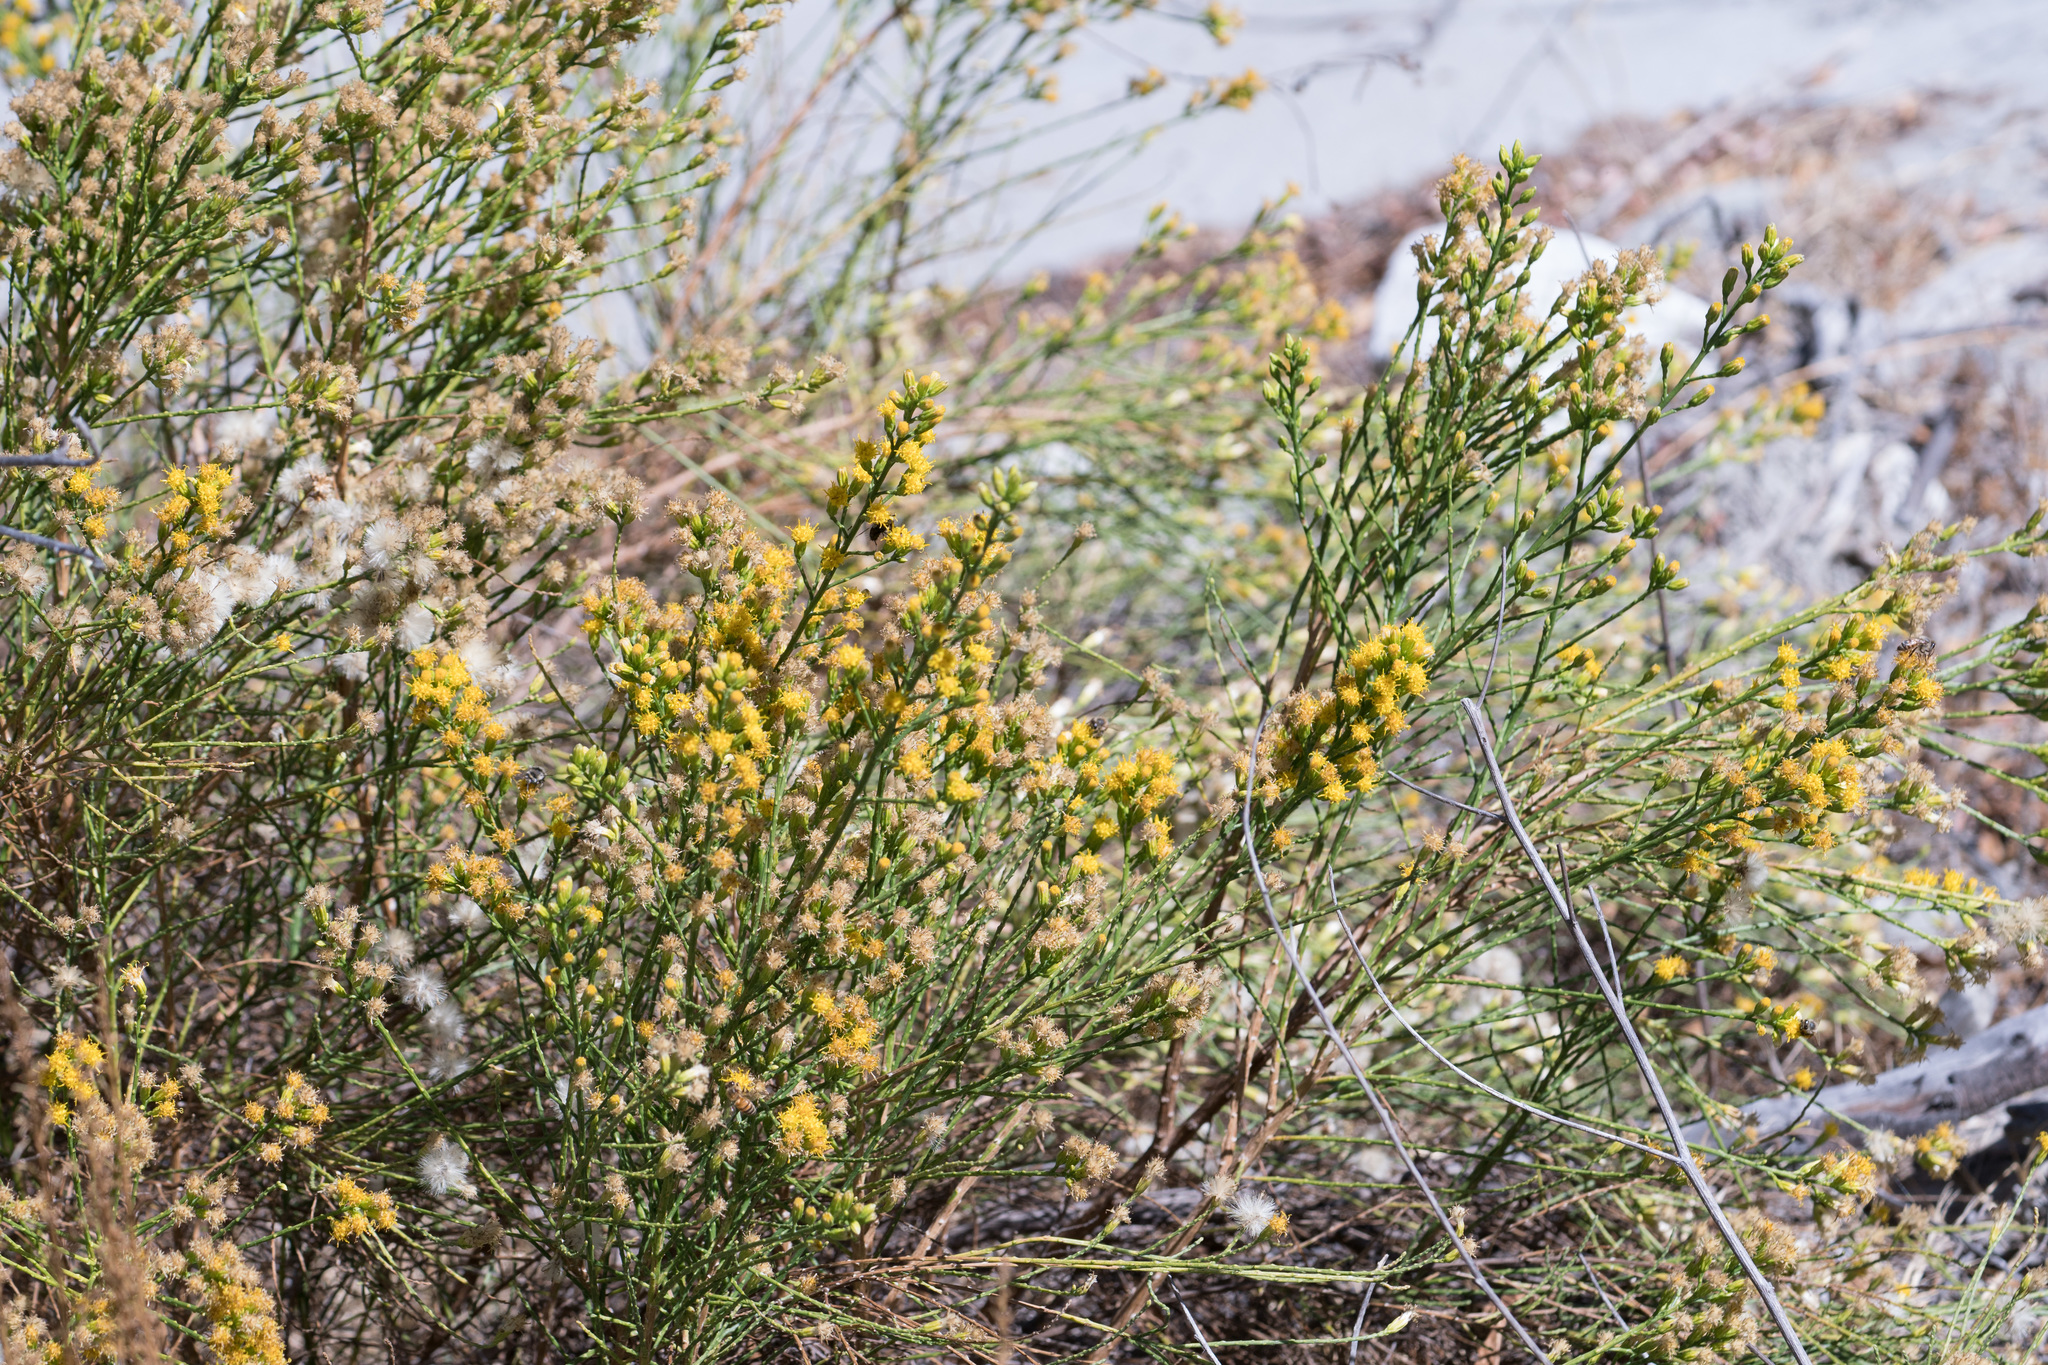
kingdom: Plantae
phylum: Tracheophyta
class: Magnoliopsida
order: Asterales
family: Asteraceae
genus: Lepidospartum
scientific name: Lepidospartum squamatum
